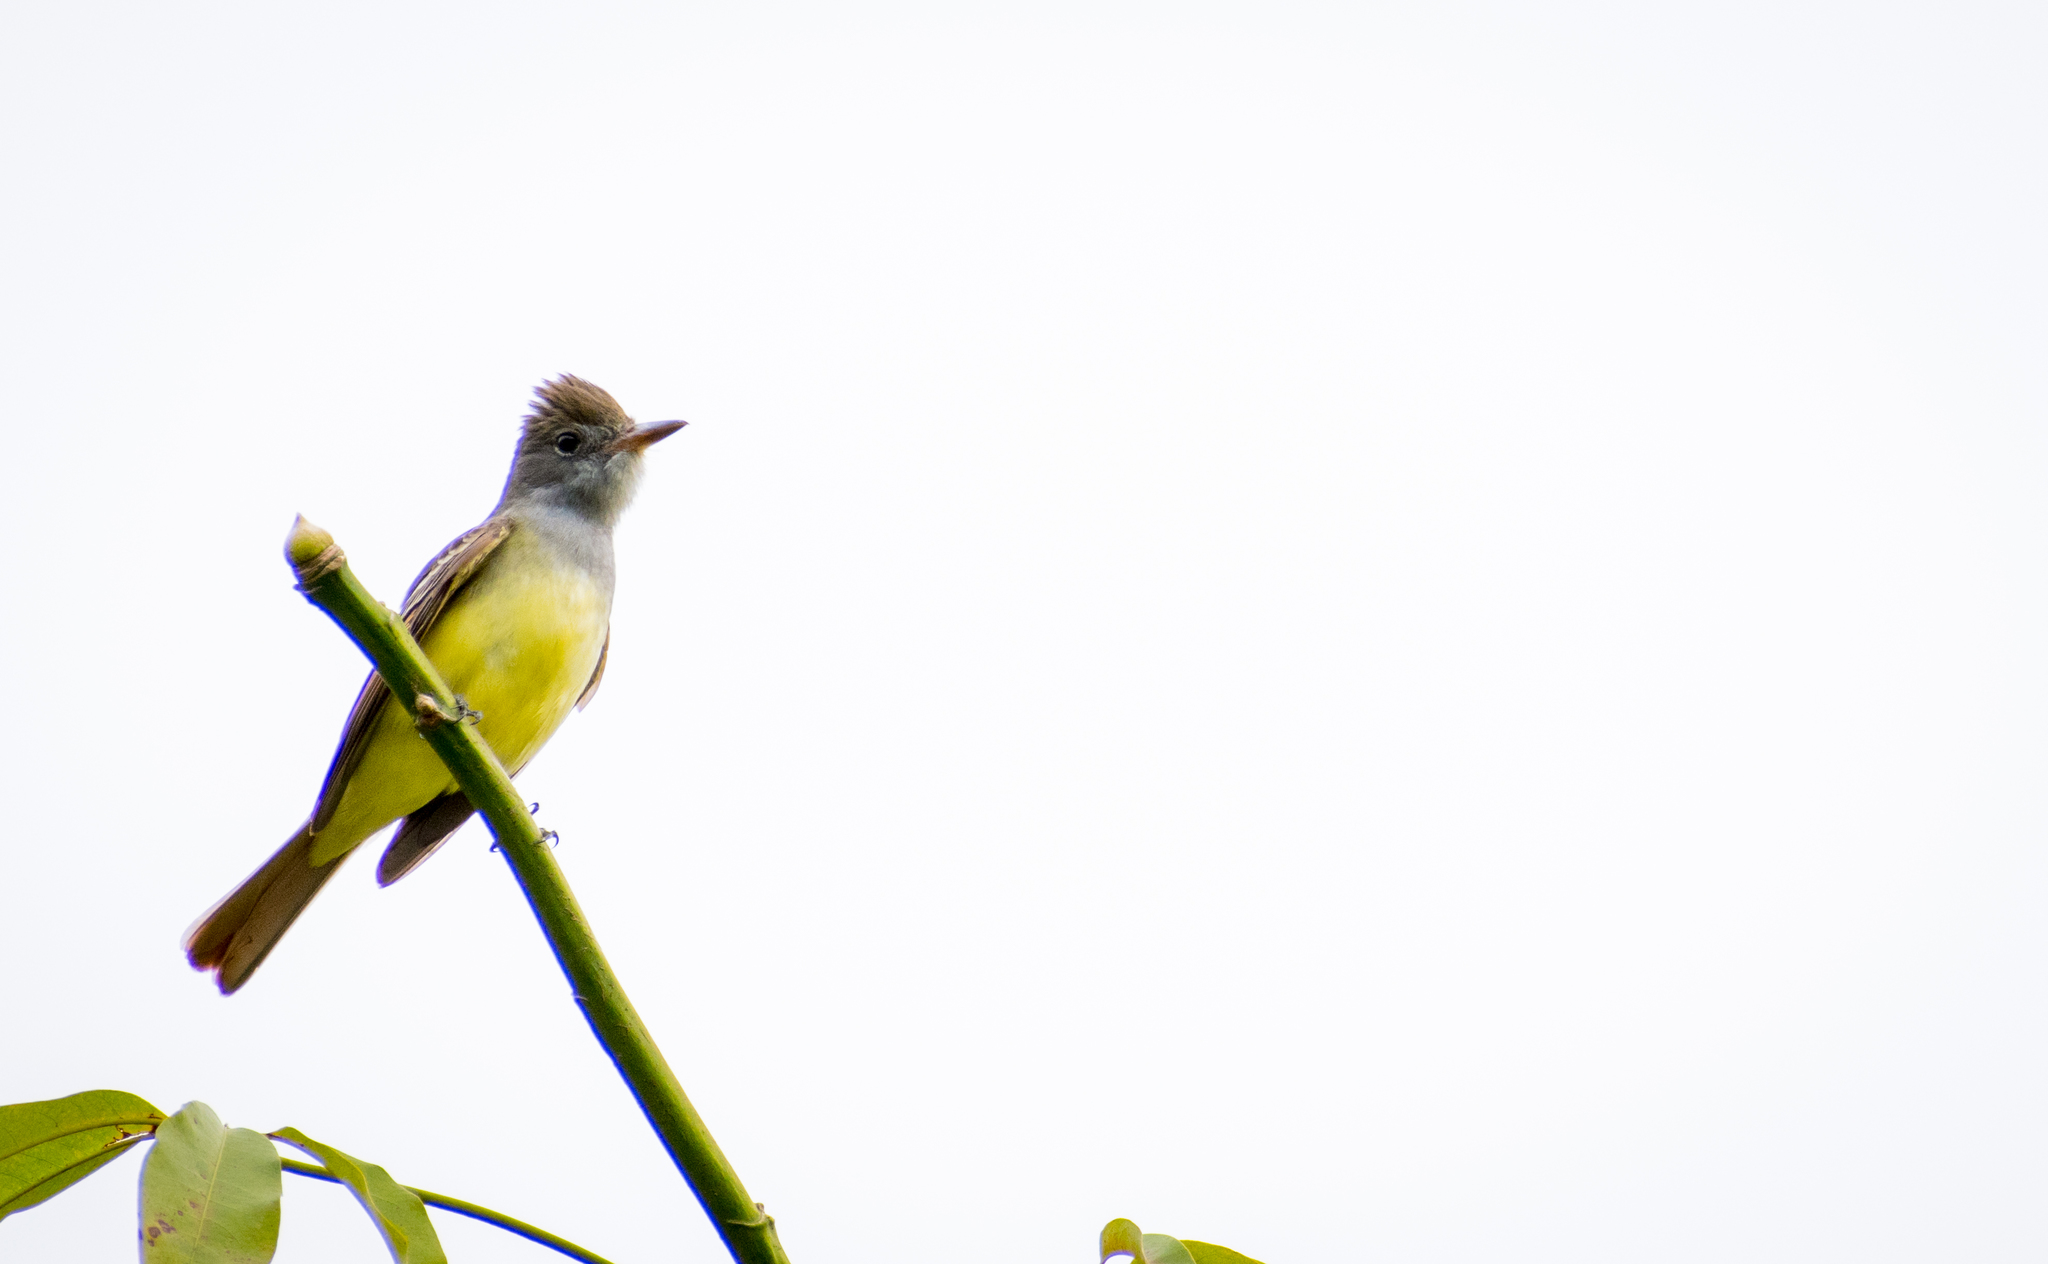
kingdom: Animalia
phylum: Chordata
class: Aves
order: Passeriformes
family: Tyrannidae
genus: Myiarchus
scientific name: Myiarchus crinitus
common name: Great crested flycatcher
